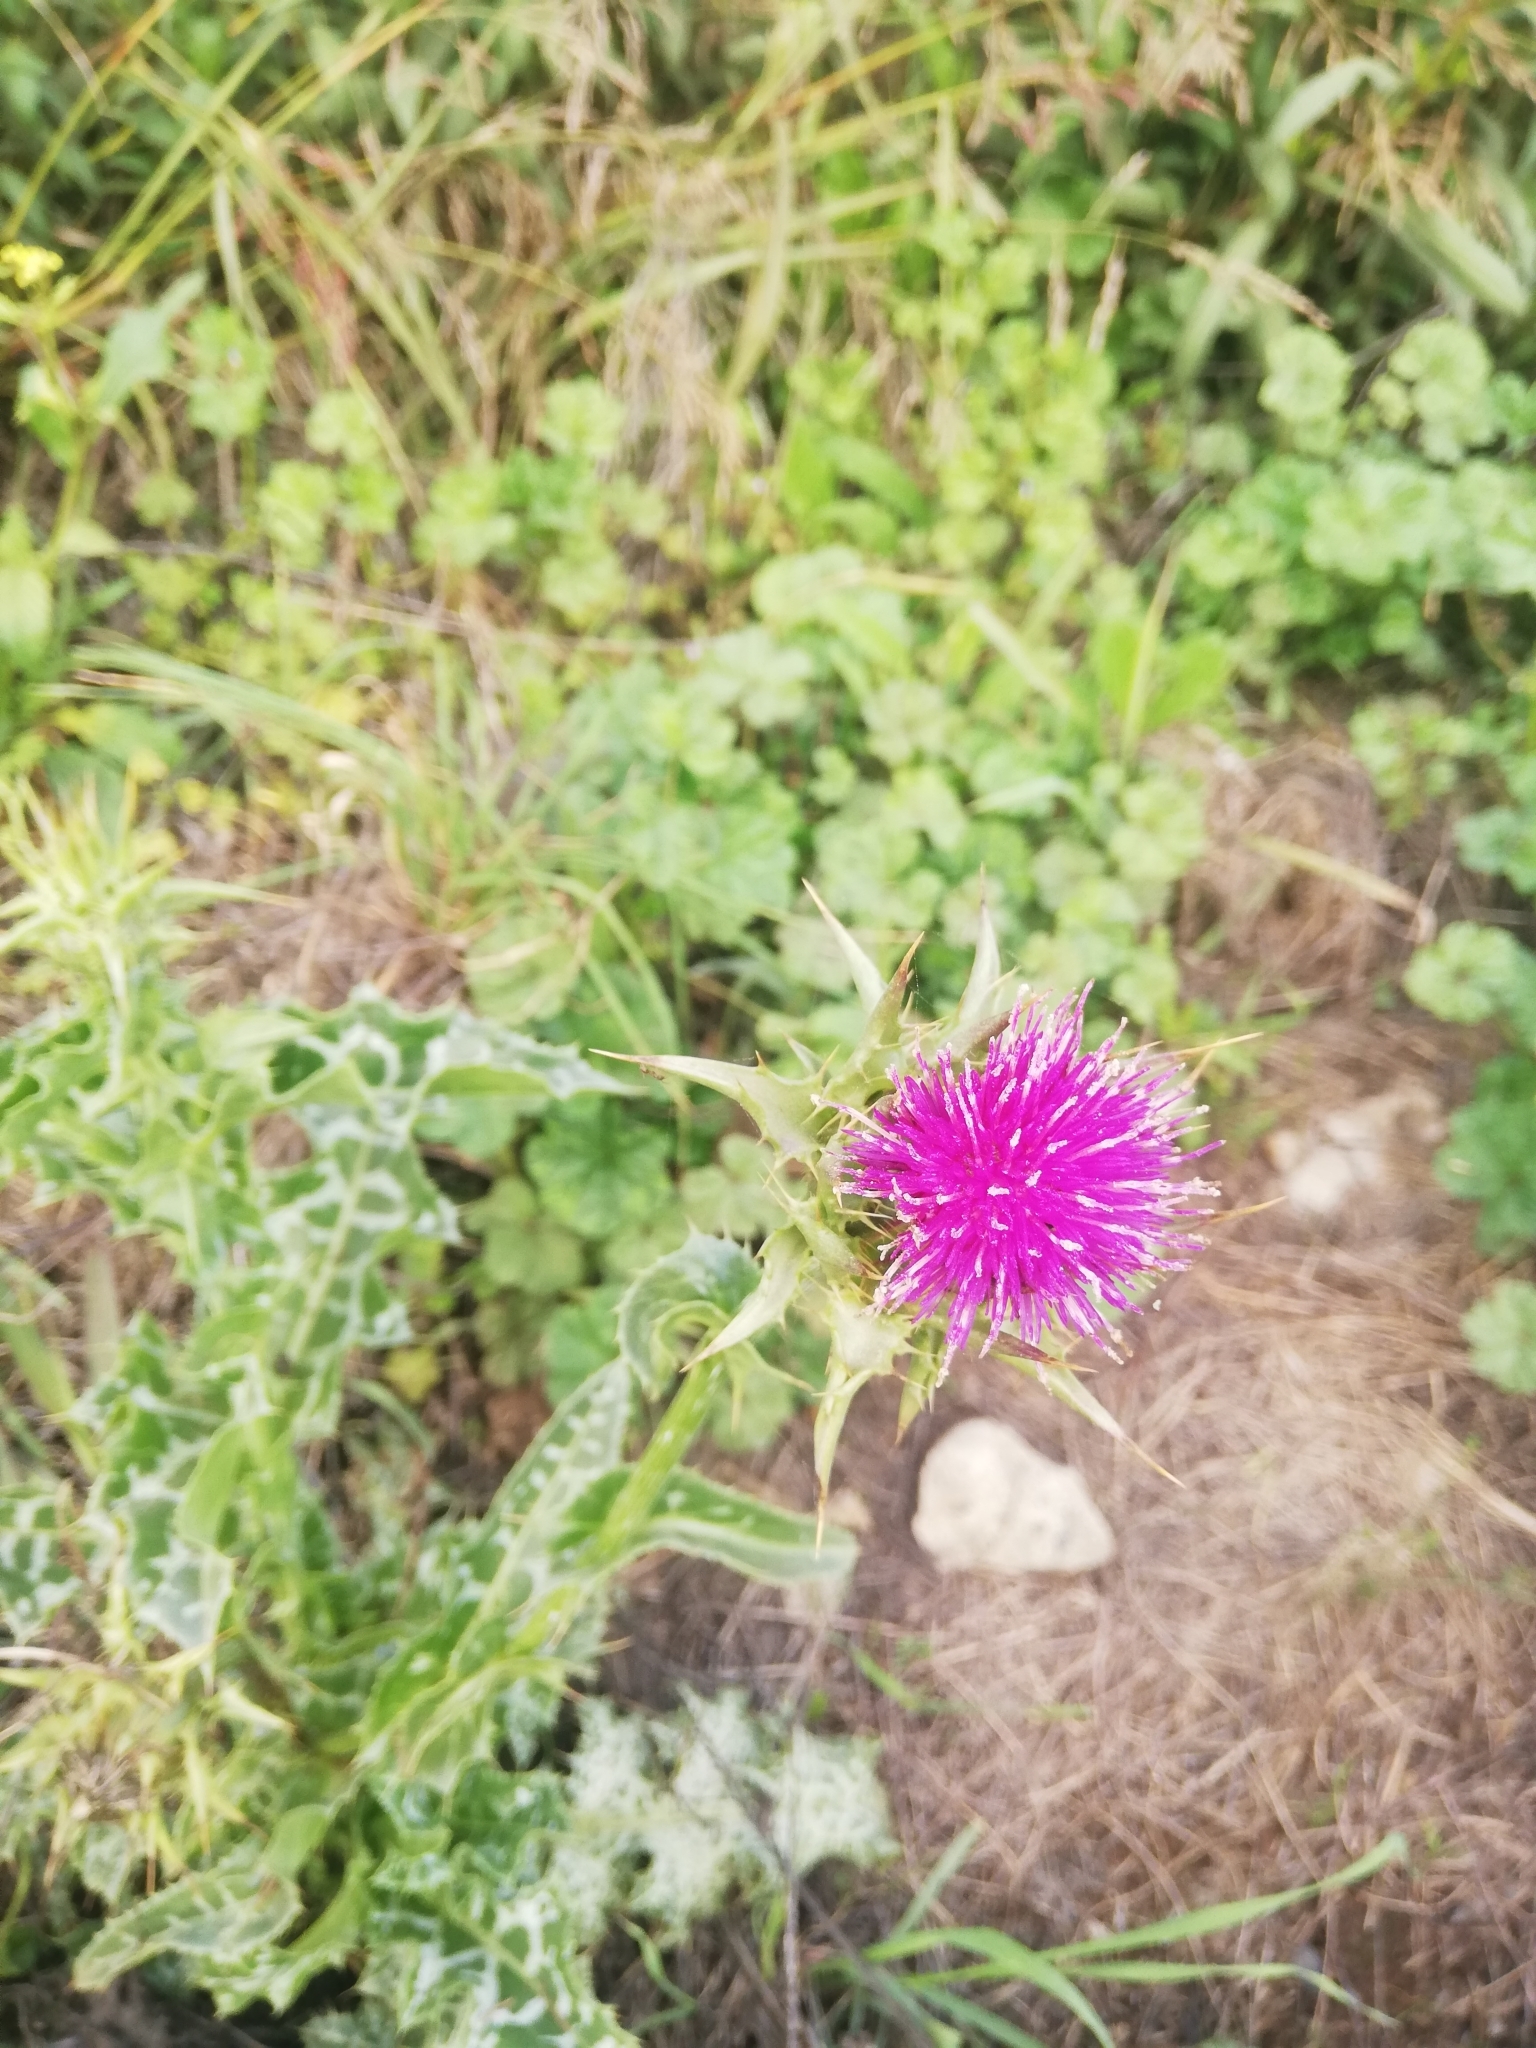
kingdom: Plantae
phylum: Tracheophyta
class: Magnoliopsida
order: Asterales
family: Asteraceae
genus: Silybum
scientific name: Silybum marianum
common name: Milk thistle
